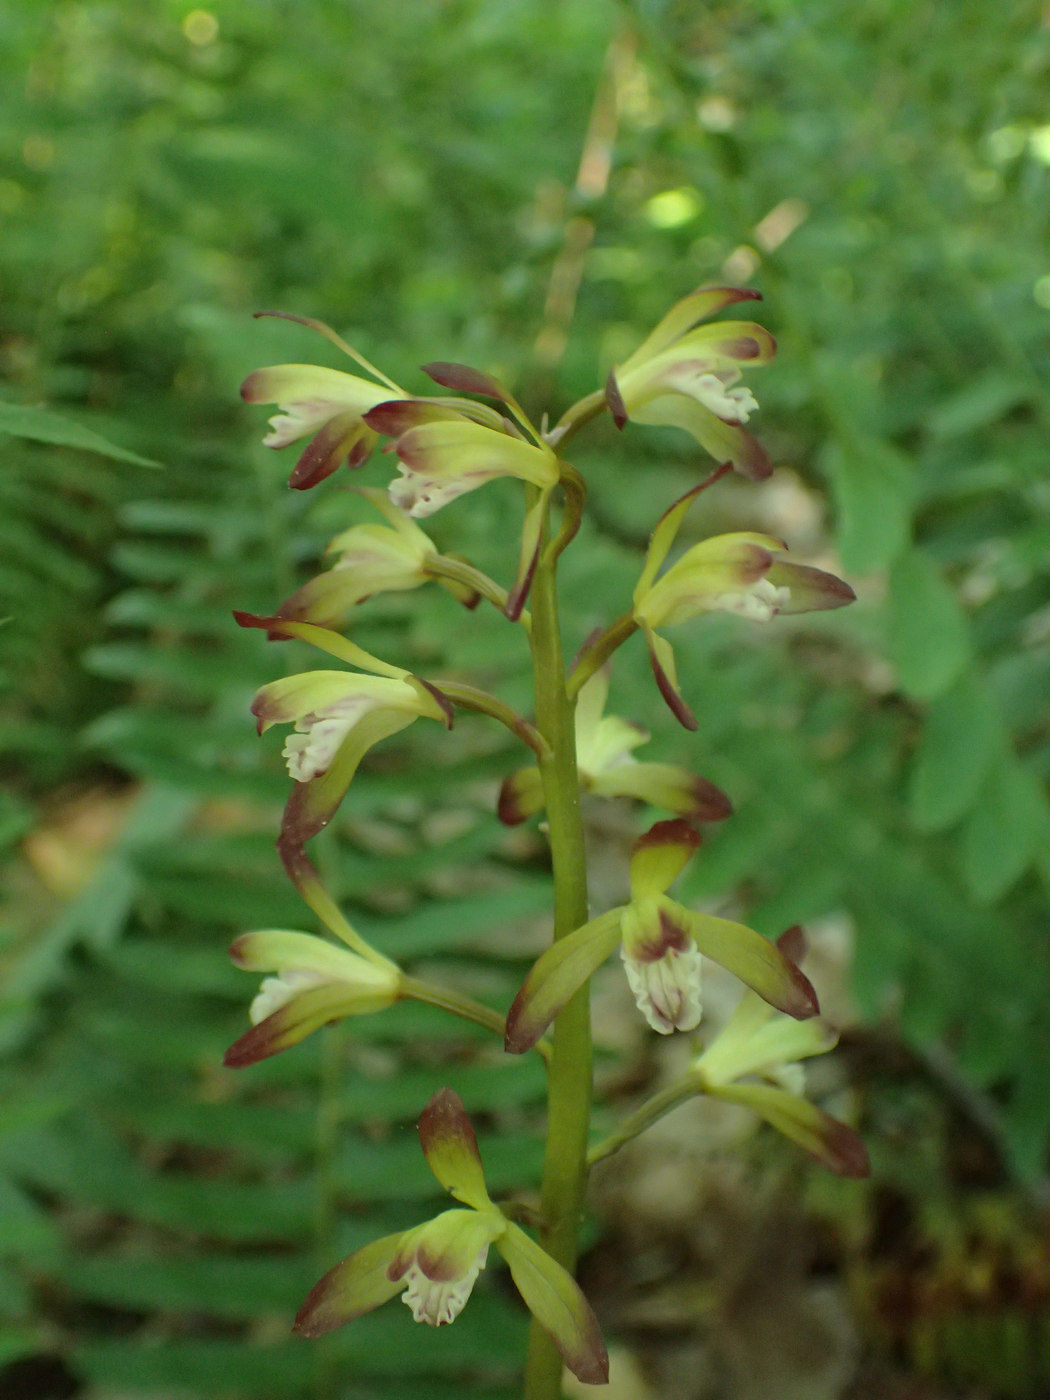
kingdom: Plantae
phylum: Tracheophyta
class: Liliopsida
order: Asparagales
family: Orchidaceae
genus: Aplectrum
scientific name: Aplectrum hyemale
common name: Adam-and-eve
